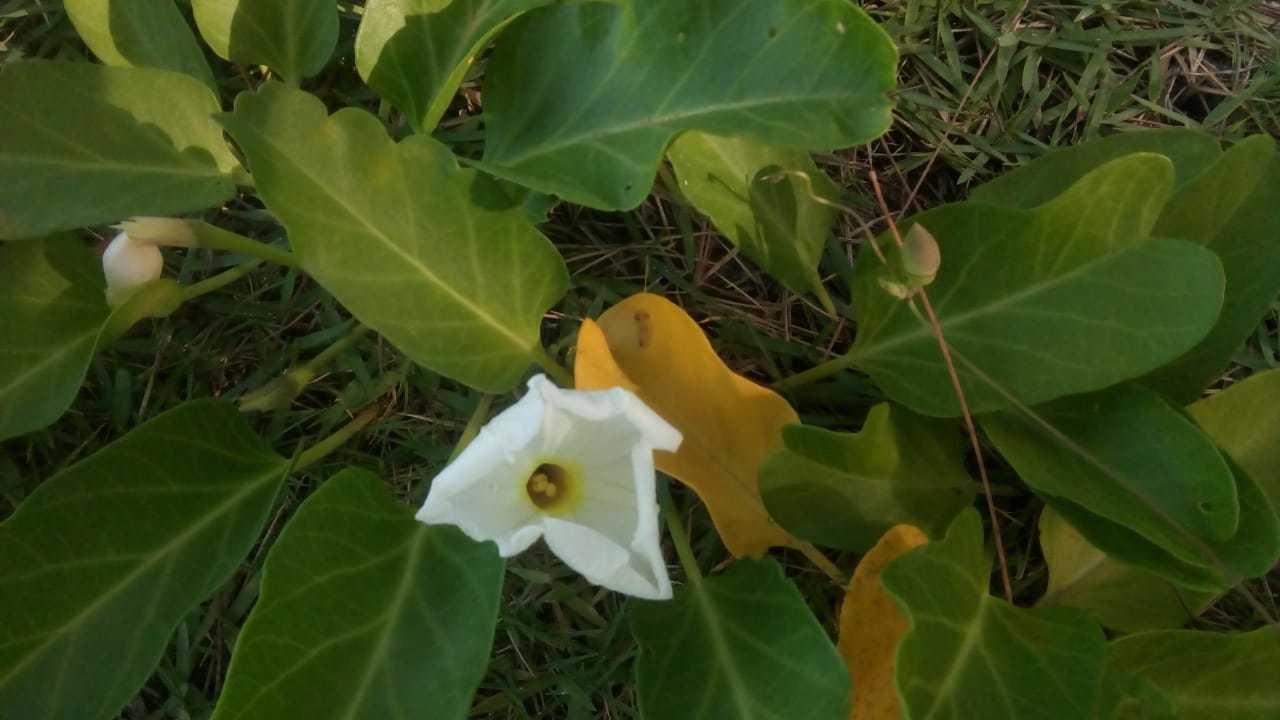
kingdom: Plantae
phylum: Tracheophyta
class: Magnoliopsida
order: Solanales
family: Convolvulaceae
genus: Ipomoea
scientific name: Ipomoea imperati
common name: Fiddle-leaf morning-glory
